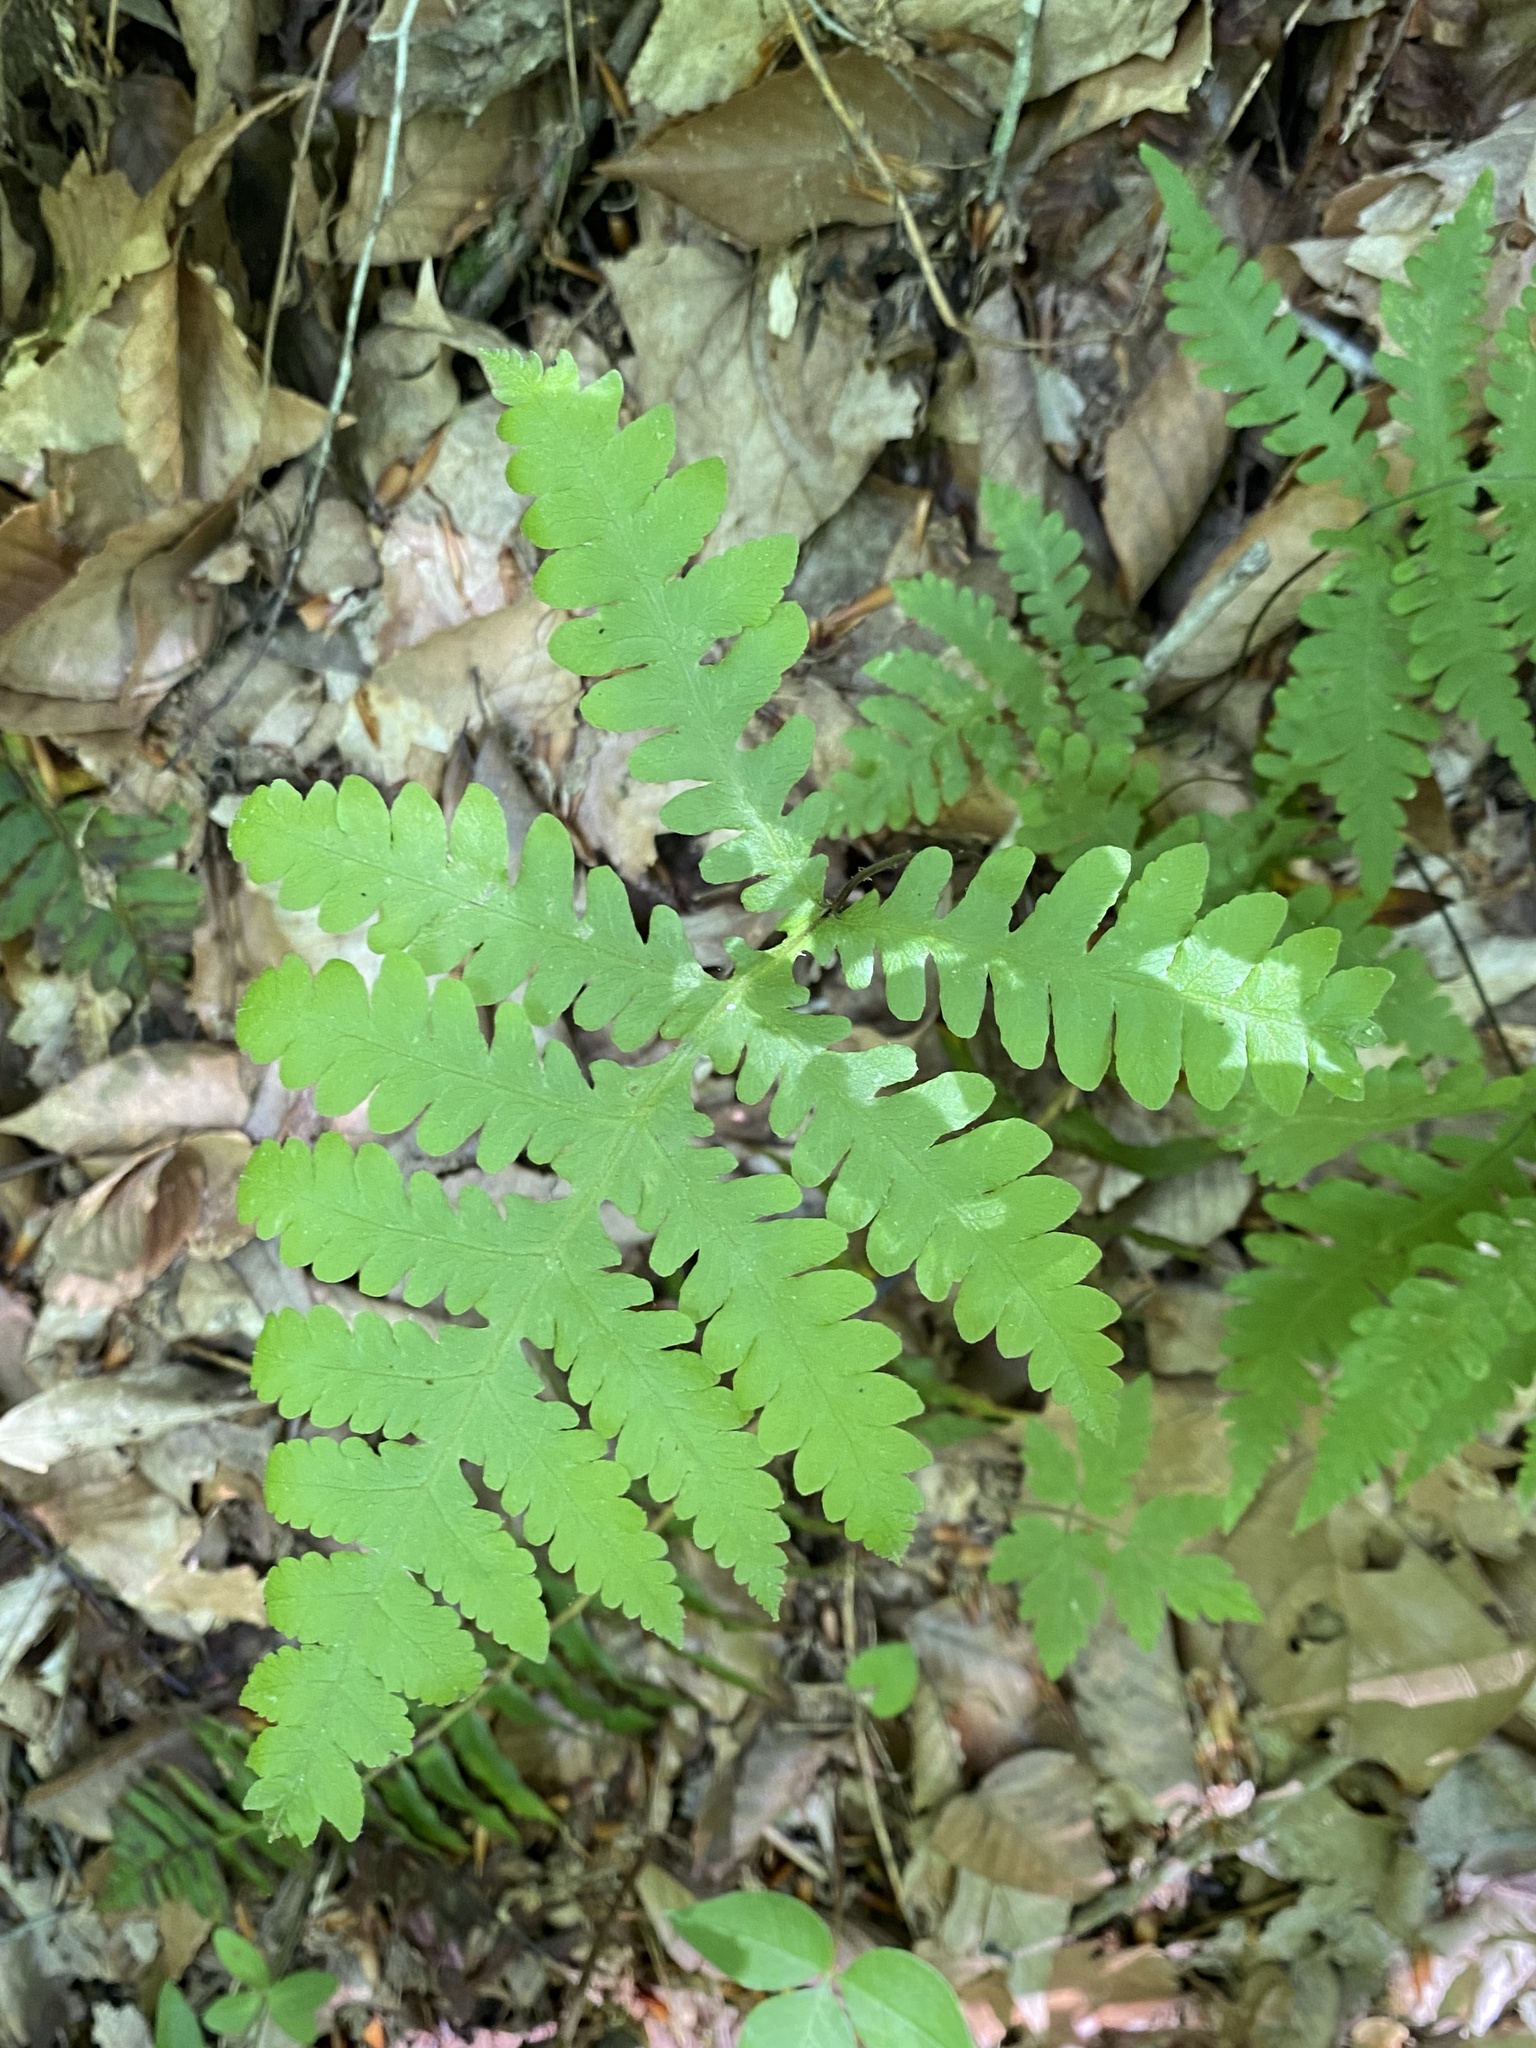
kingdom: Plantae
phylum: Tracheophyta
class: Polypodiopsida
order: Polypodiales
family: Thelypteridaceae
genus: Phegopteris
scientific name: Phegopteris hexagonoptera
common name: Broad beech fern
